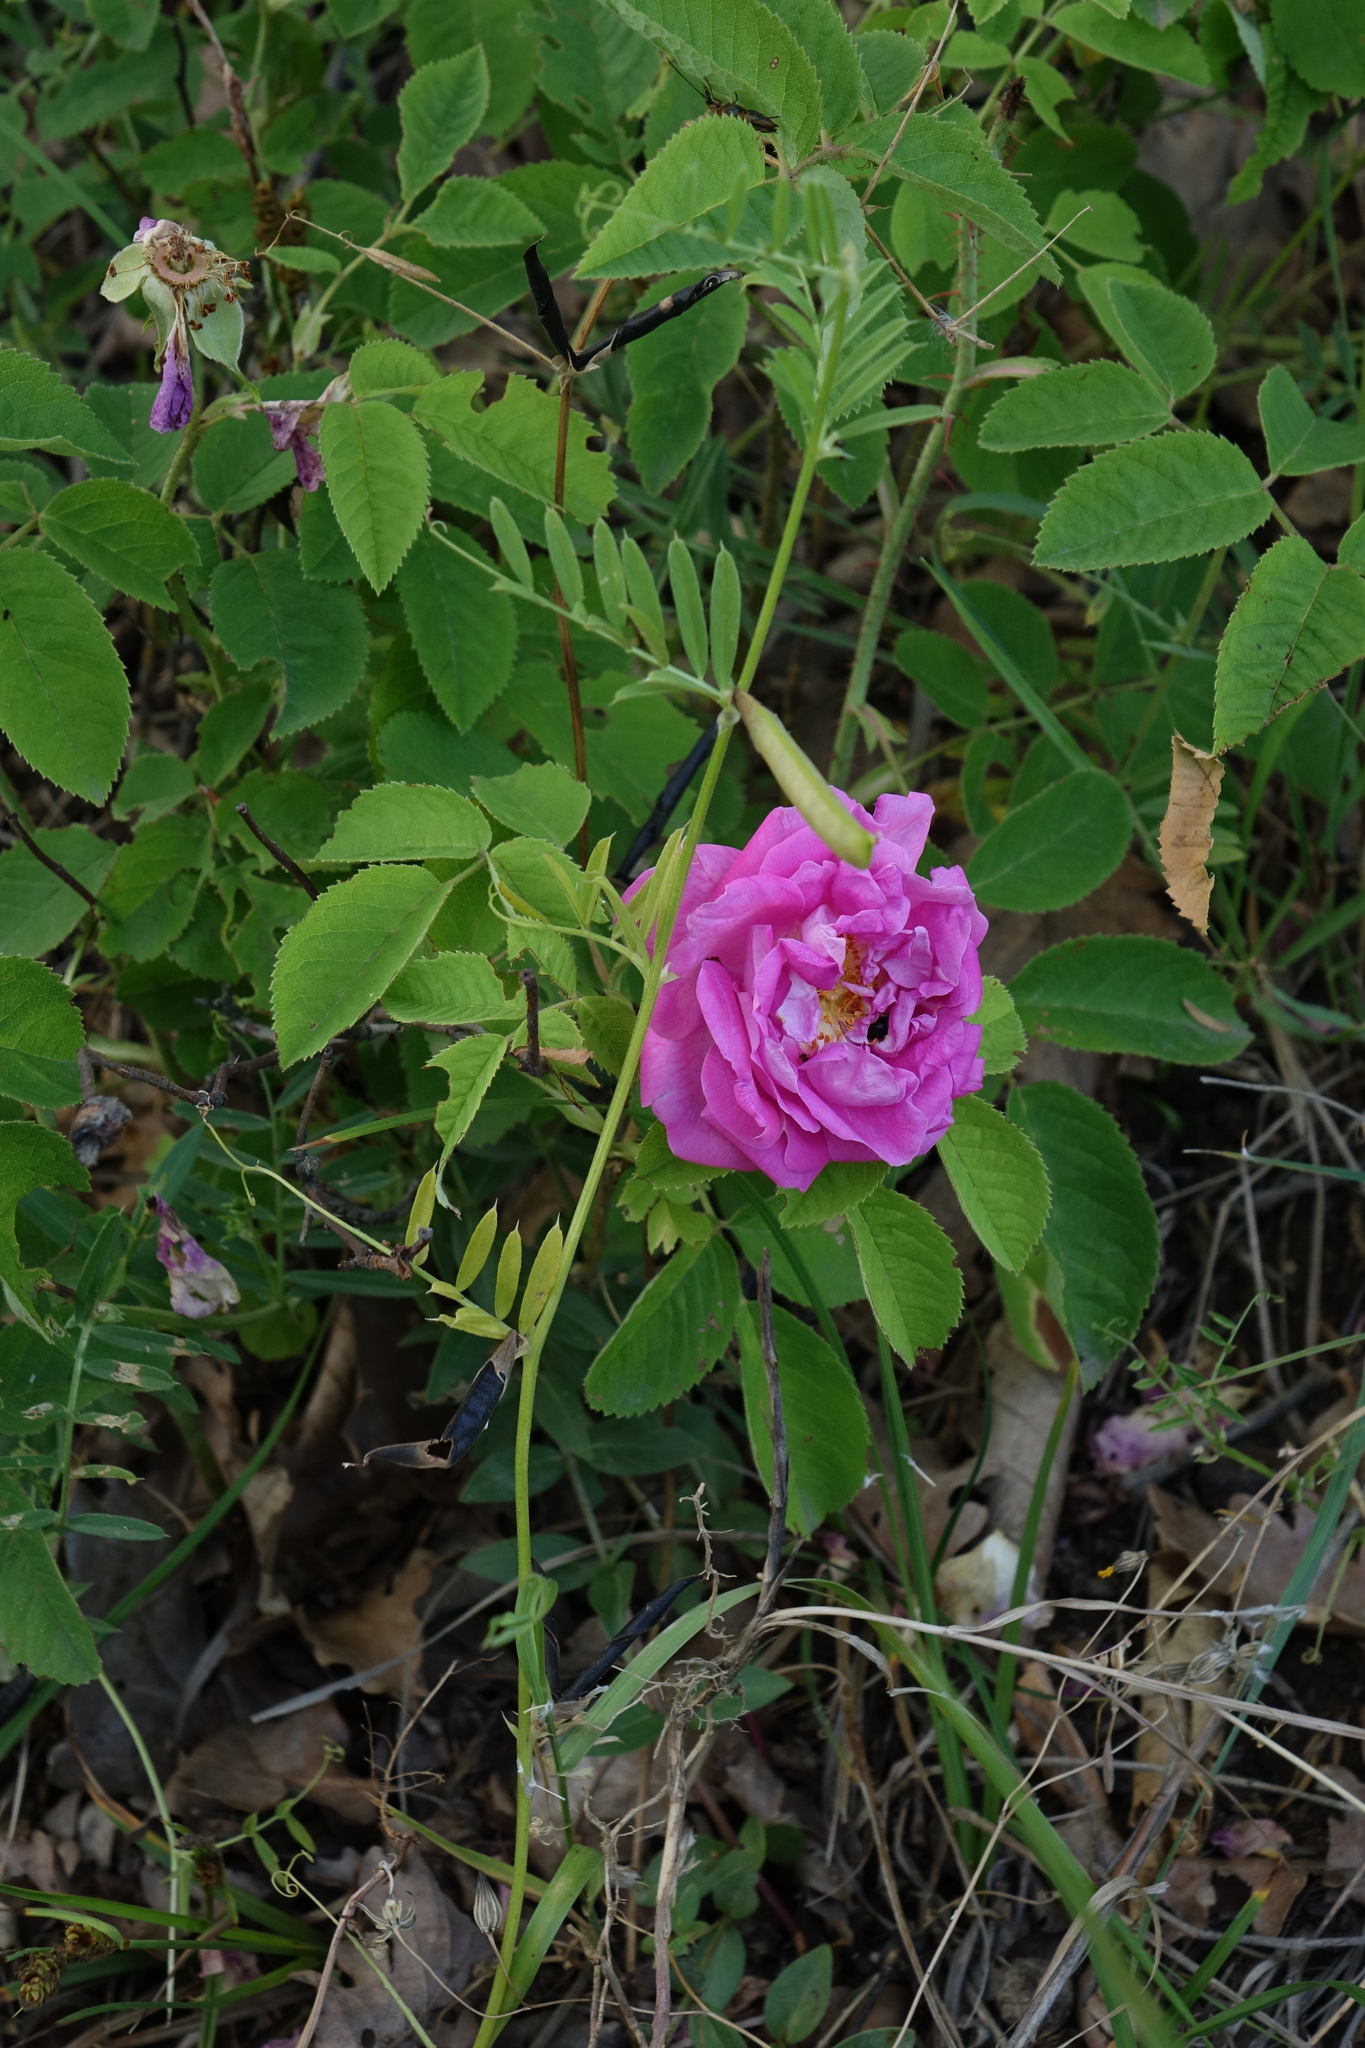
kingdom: Plantae
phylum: Tracheophyta
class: Magnoliopsida
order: Fabales
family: Fabaceae
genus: Vicia
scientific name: Vicia sativa
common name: Garden vetch
